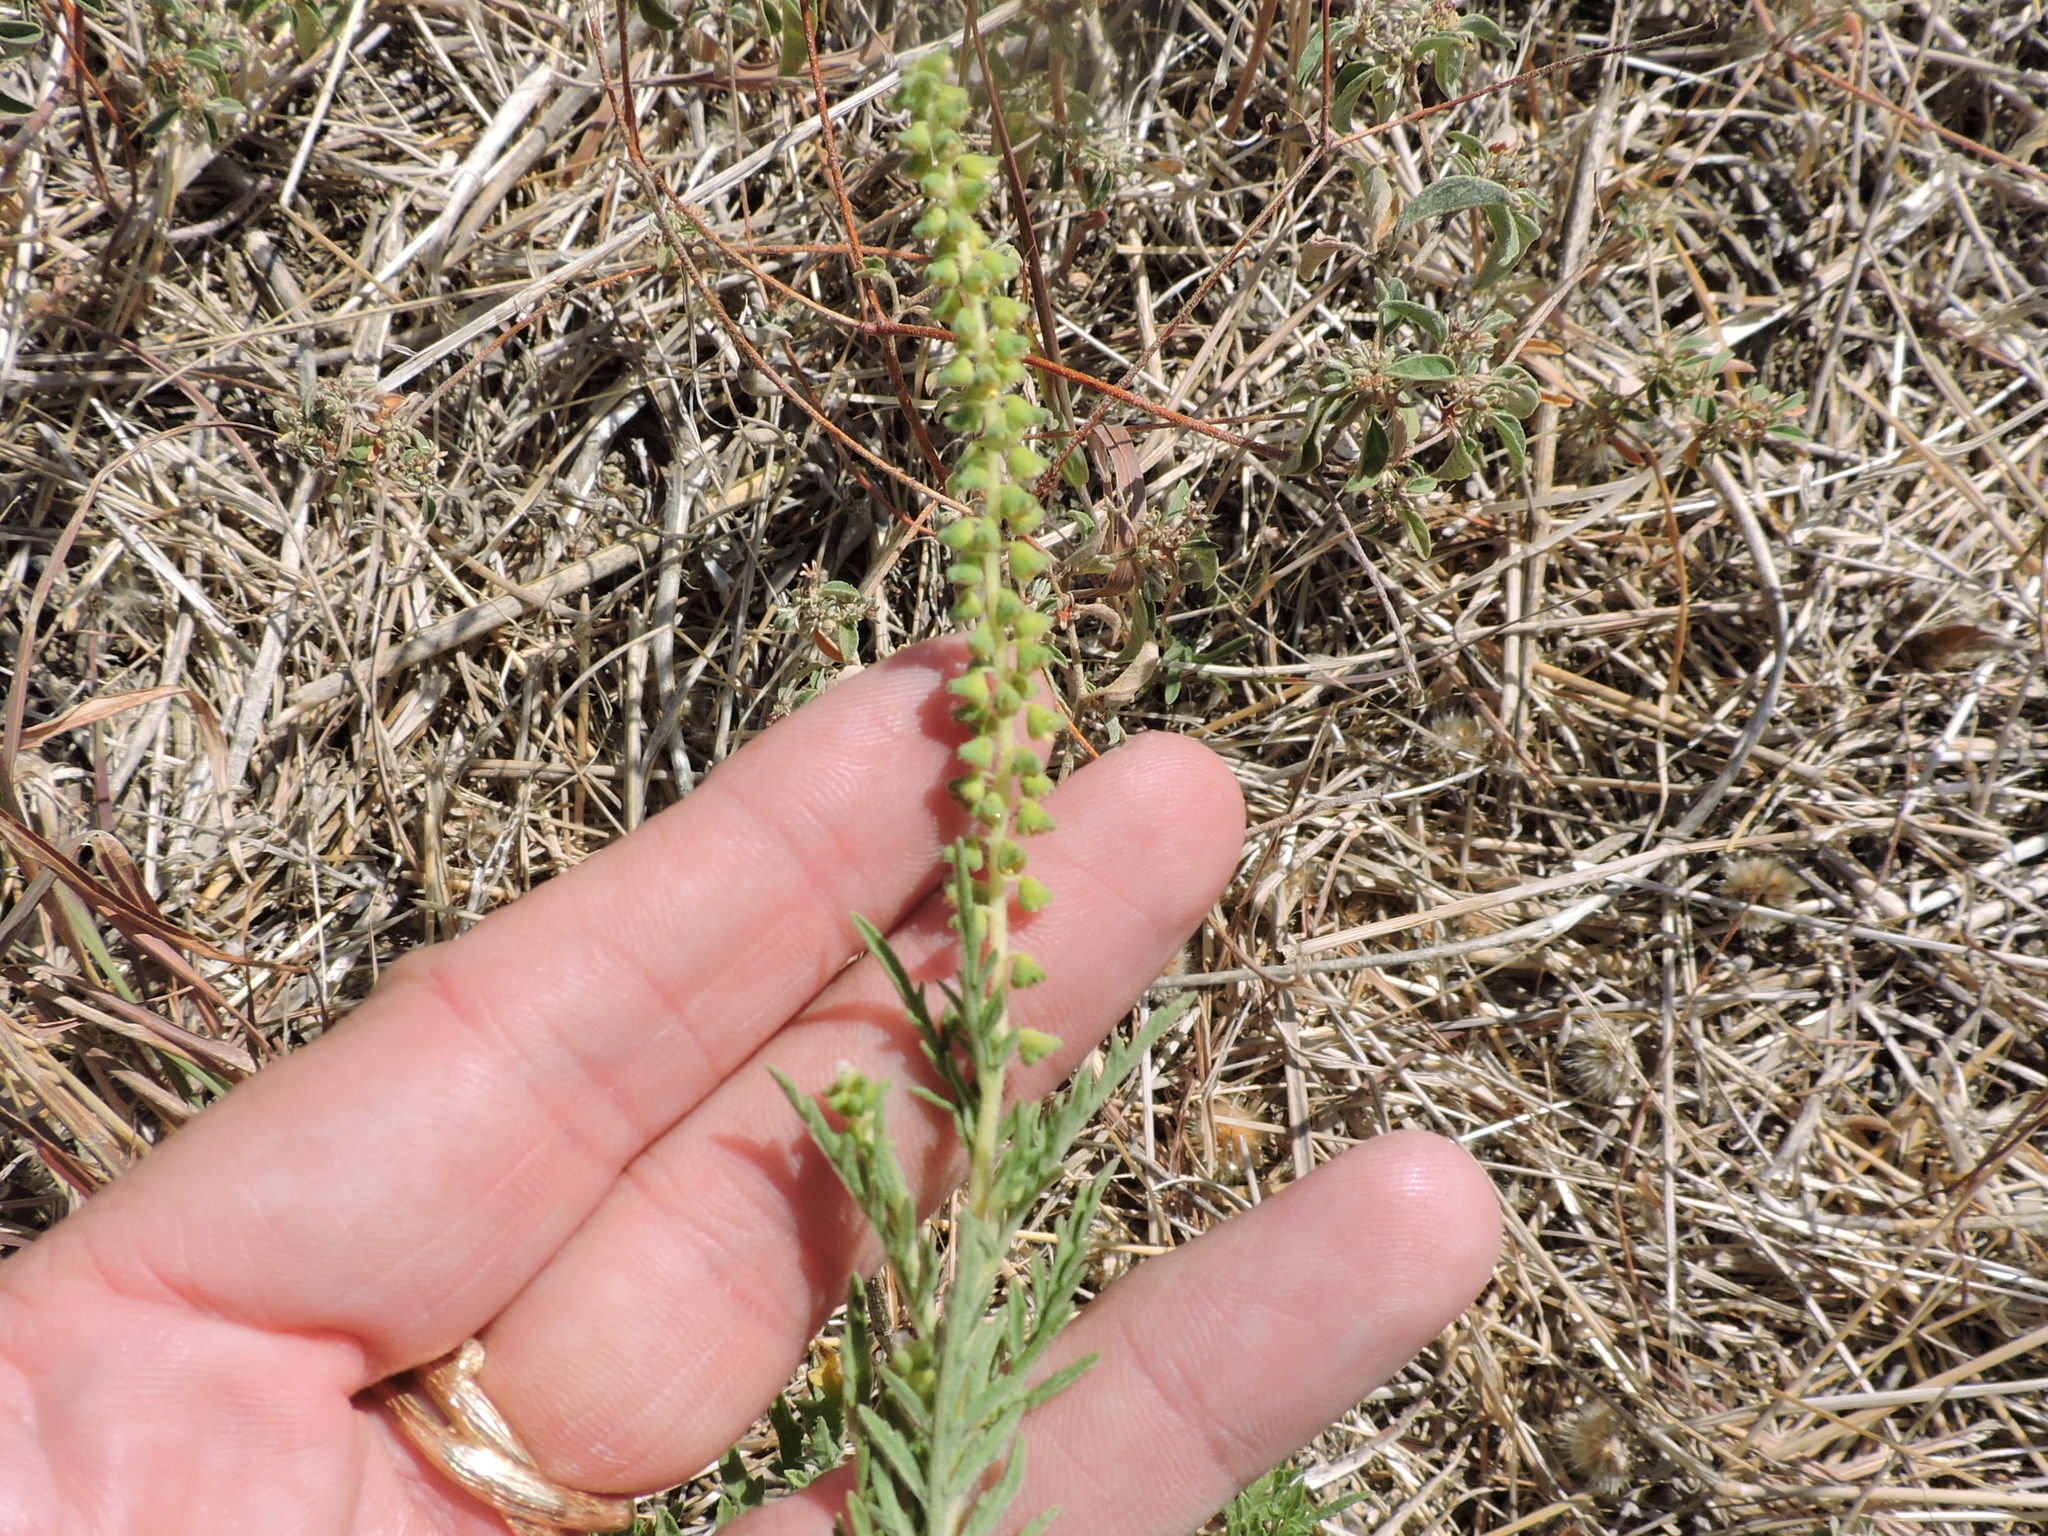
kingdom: Plantae
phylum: Tracheophyta
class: Magnoliopsida
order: Asterales
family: Asteraceae
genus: Ambrosia
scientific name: Ambrosia psilostachya
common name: Perennial ragweed
